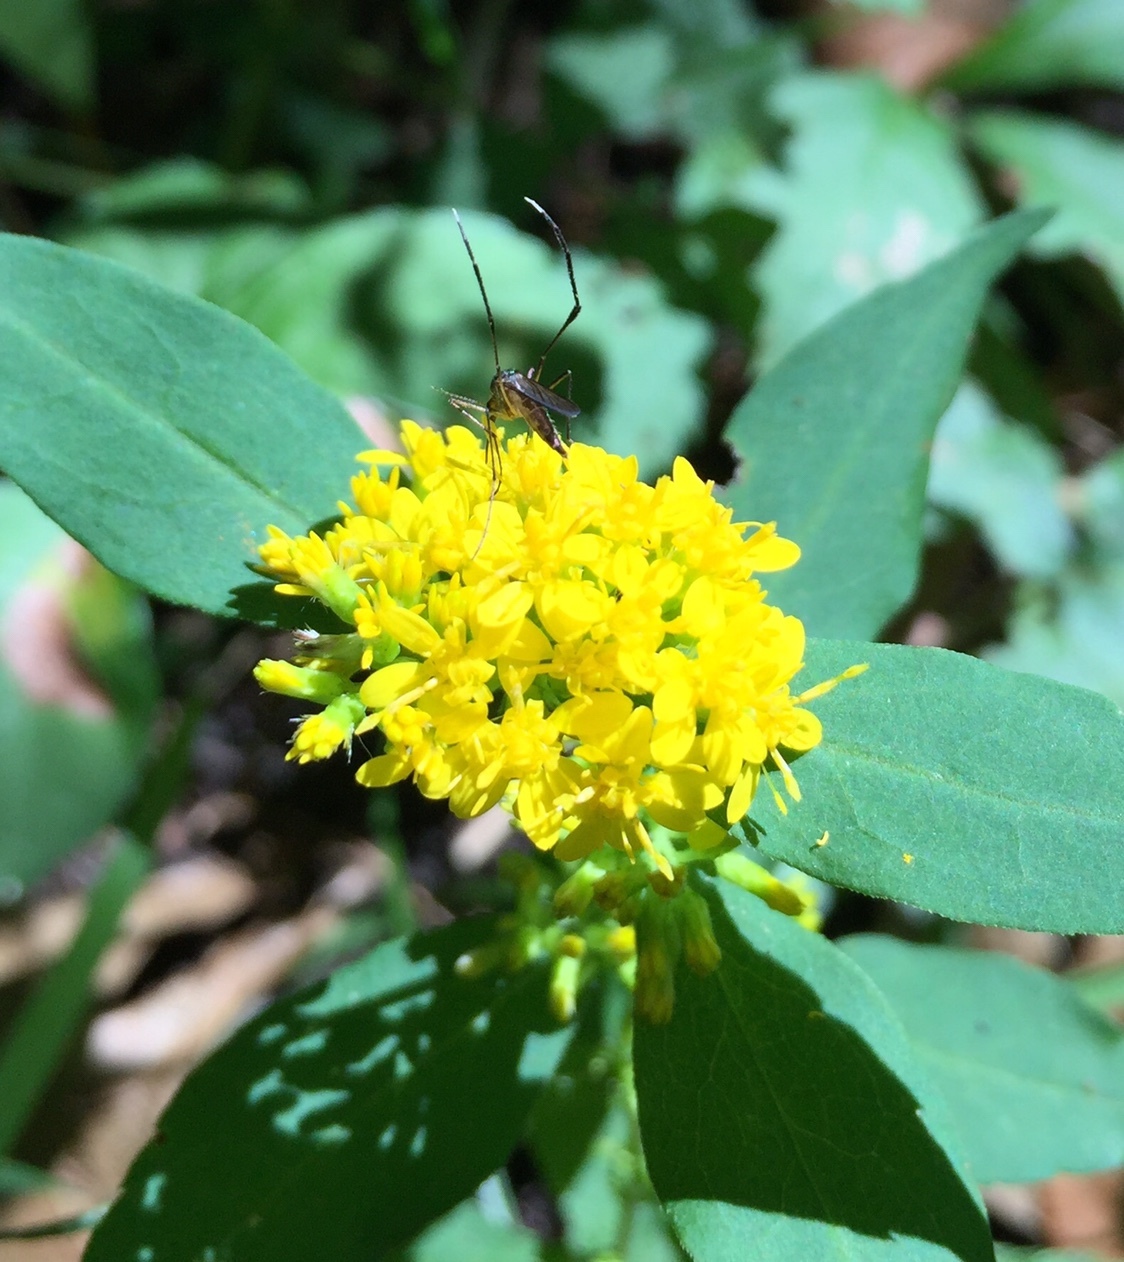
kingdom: Animalia
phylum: Arthropoda
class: Insecta
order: Diptera
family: Culicidae
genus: Psorophora
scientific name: Psorophora ferox
